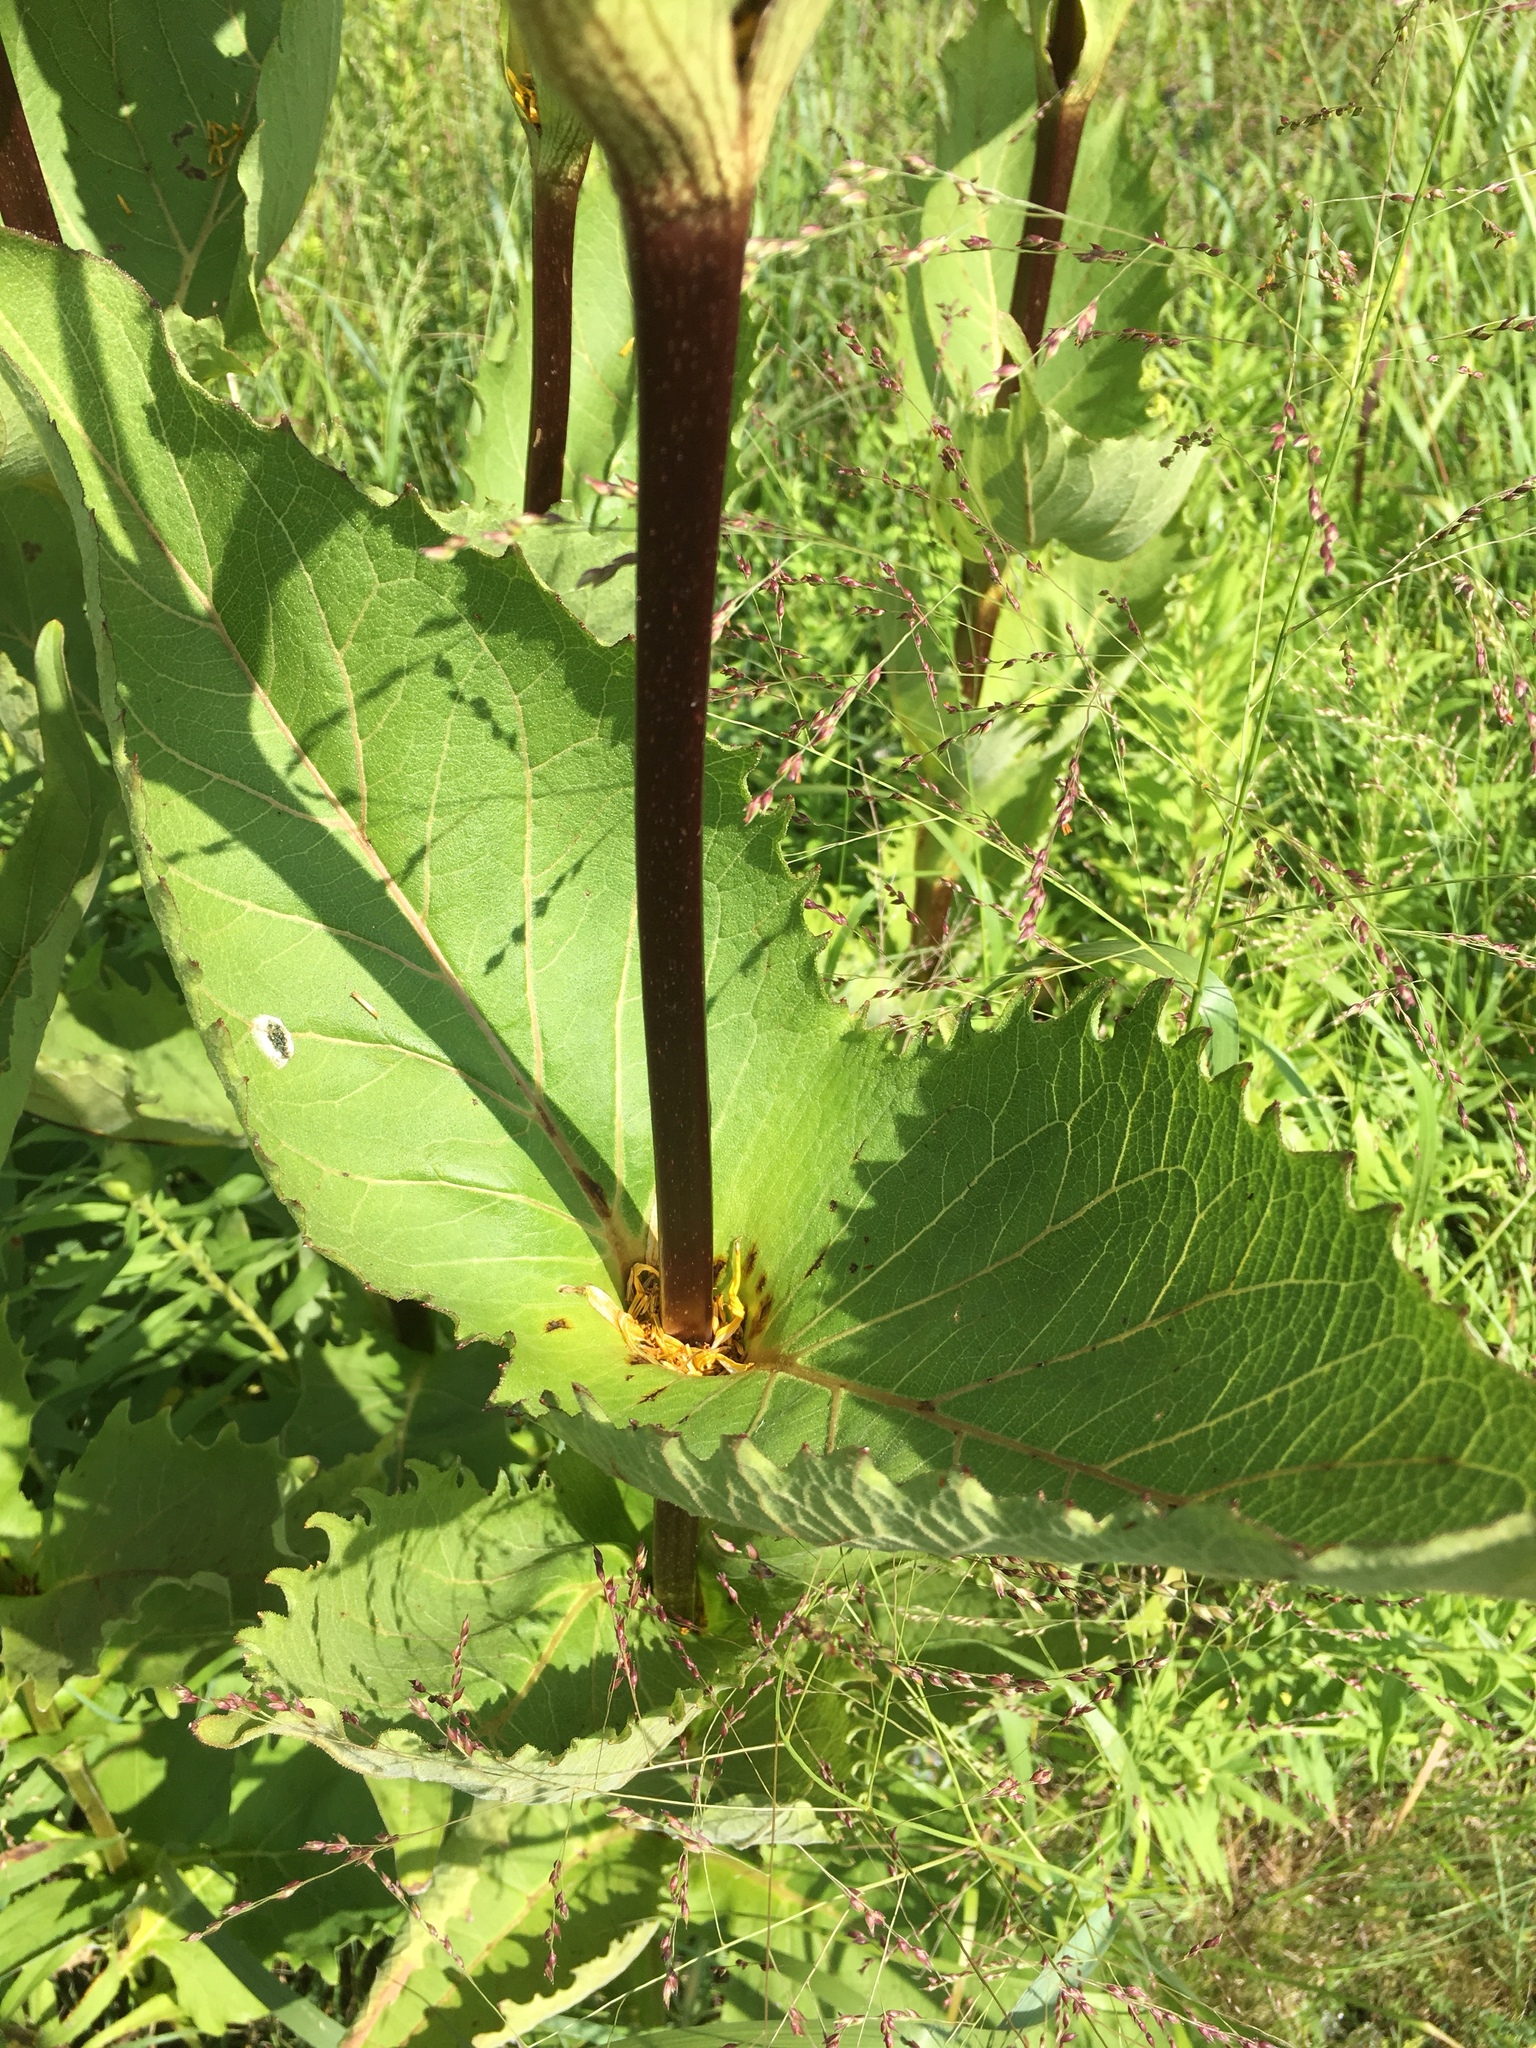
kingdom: Plantae
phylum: Tracheophyta
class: Magnoliopsida
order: Asterales
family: Asteraceae
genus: Silphium
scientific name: Silphium perfoliatum
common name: Cup-plant
